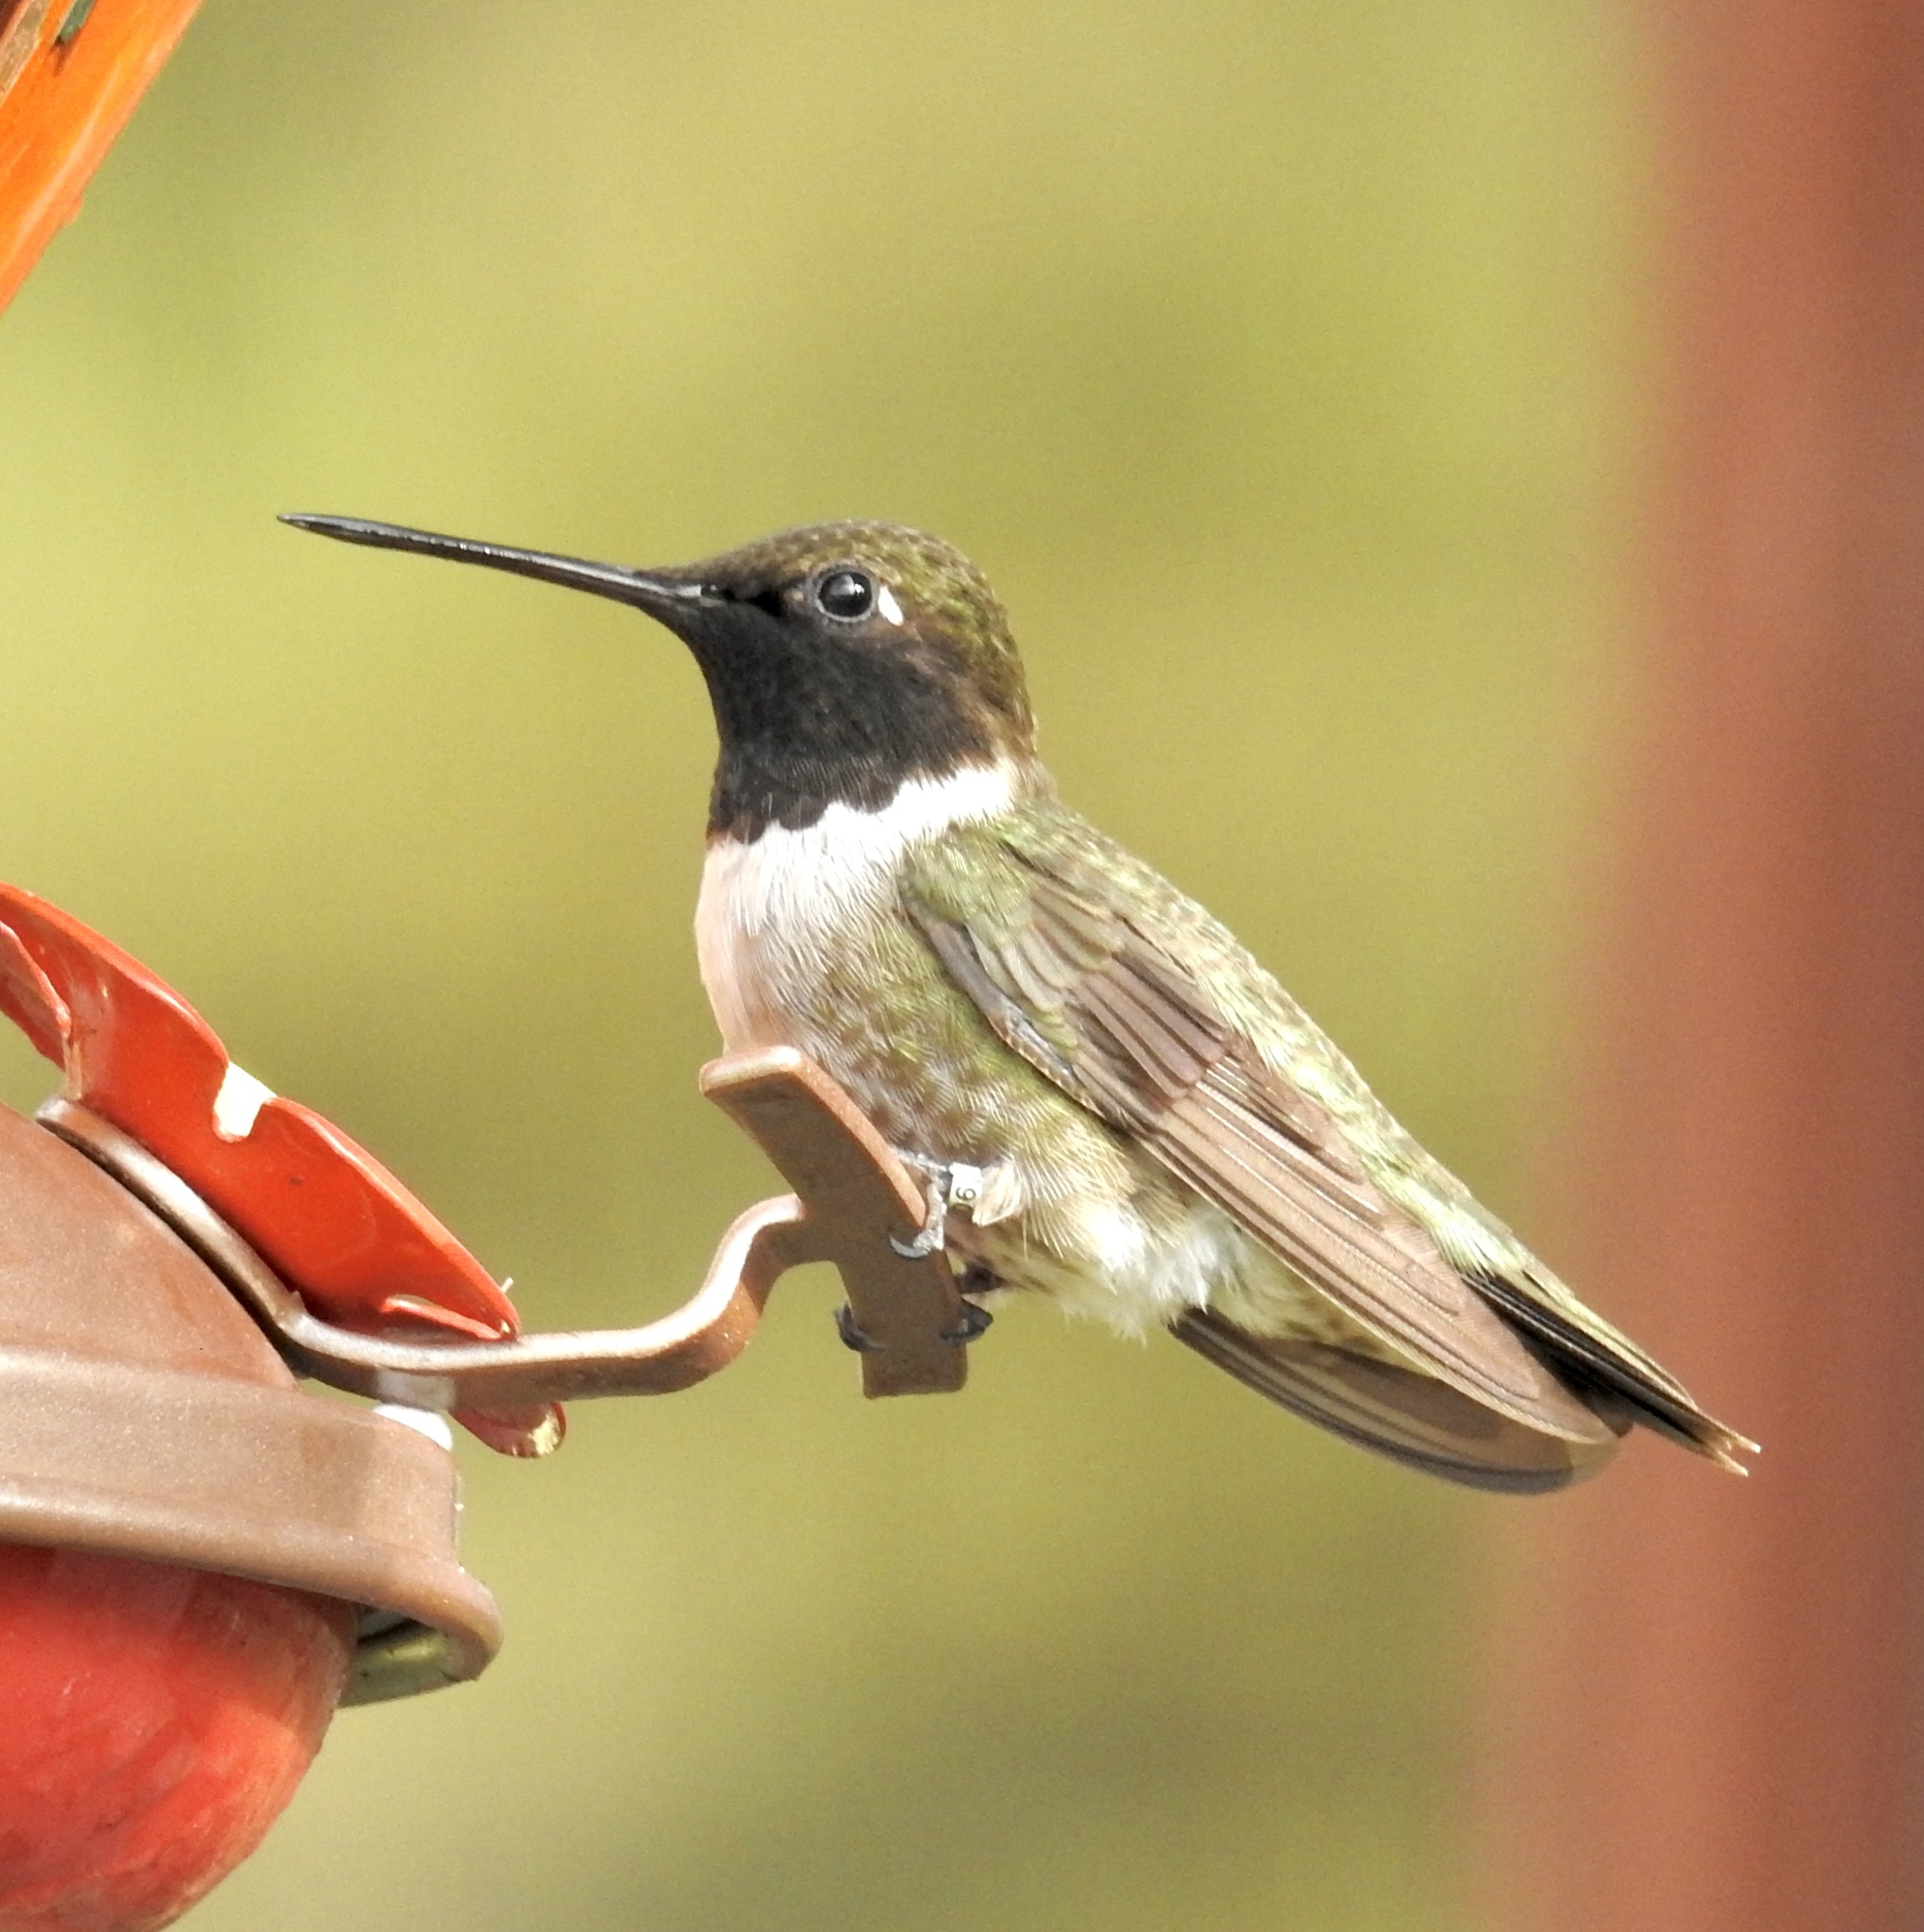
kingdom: Animalia
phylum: Chordata
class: Aves
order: Apodiformes
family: Trochilidae
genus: Archilochus
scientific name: Archilochus alexandri
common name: Black-chinned hummingbird
